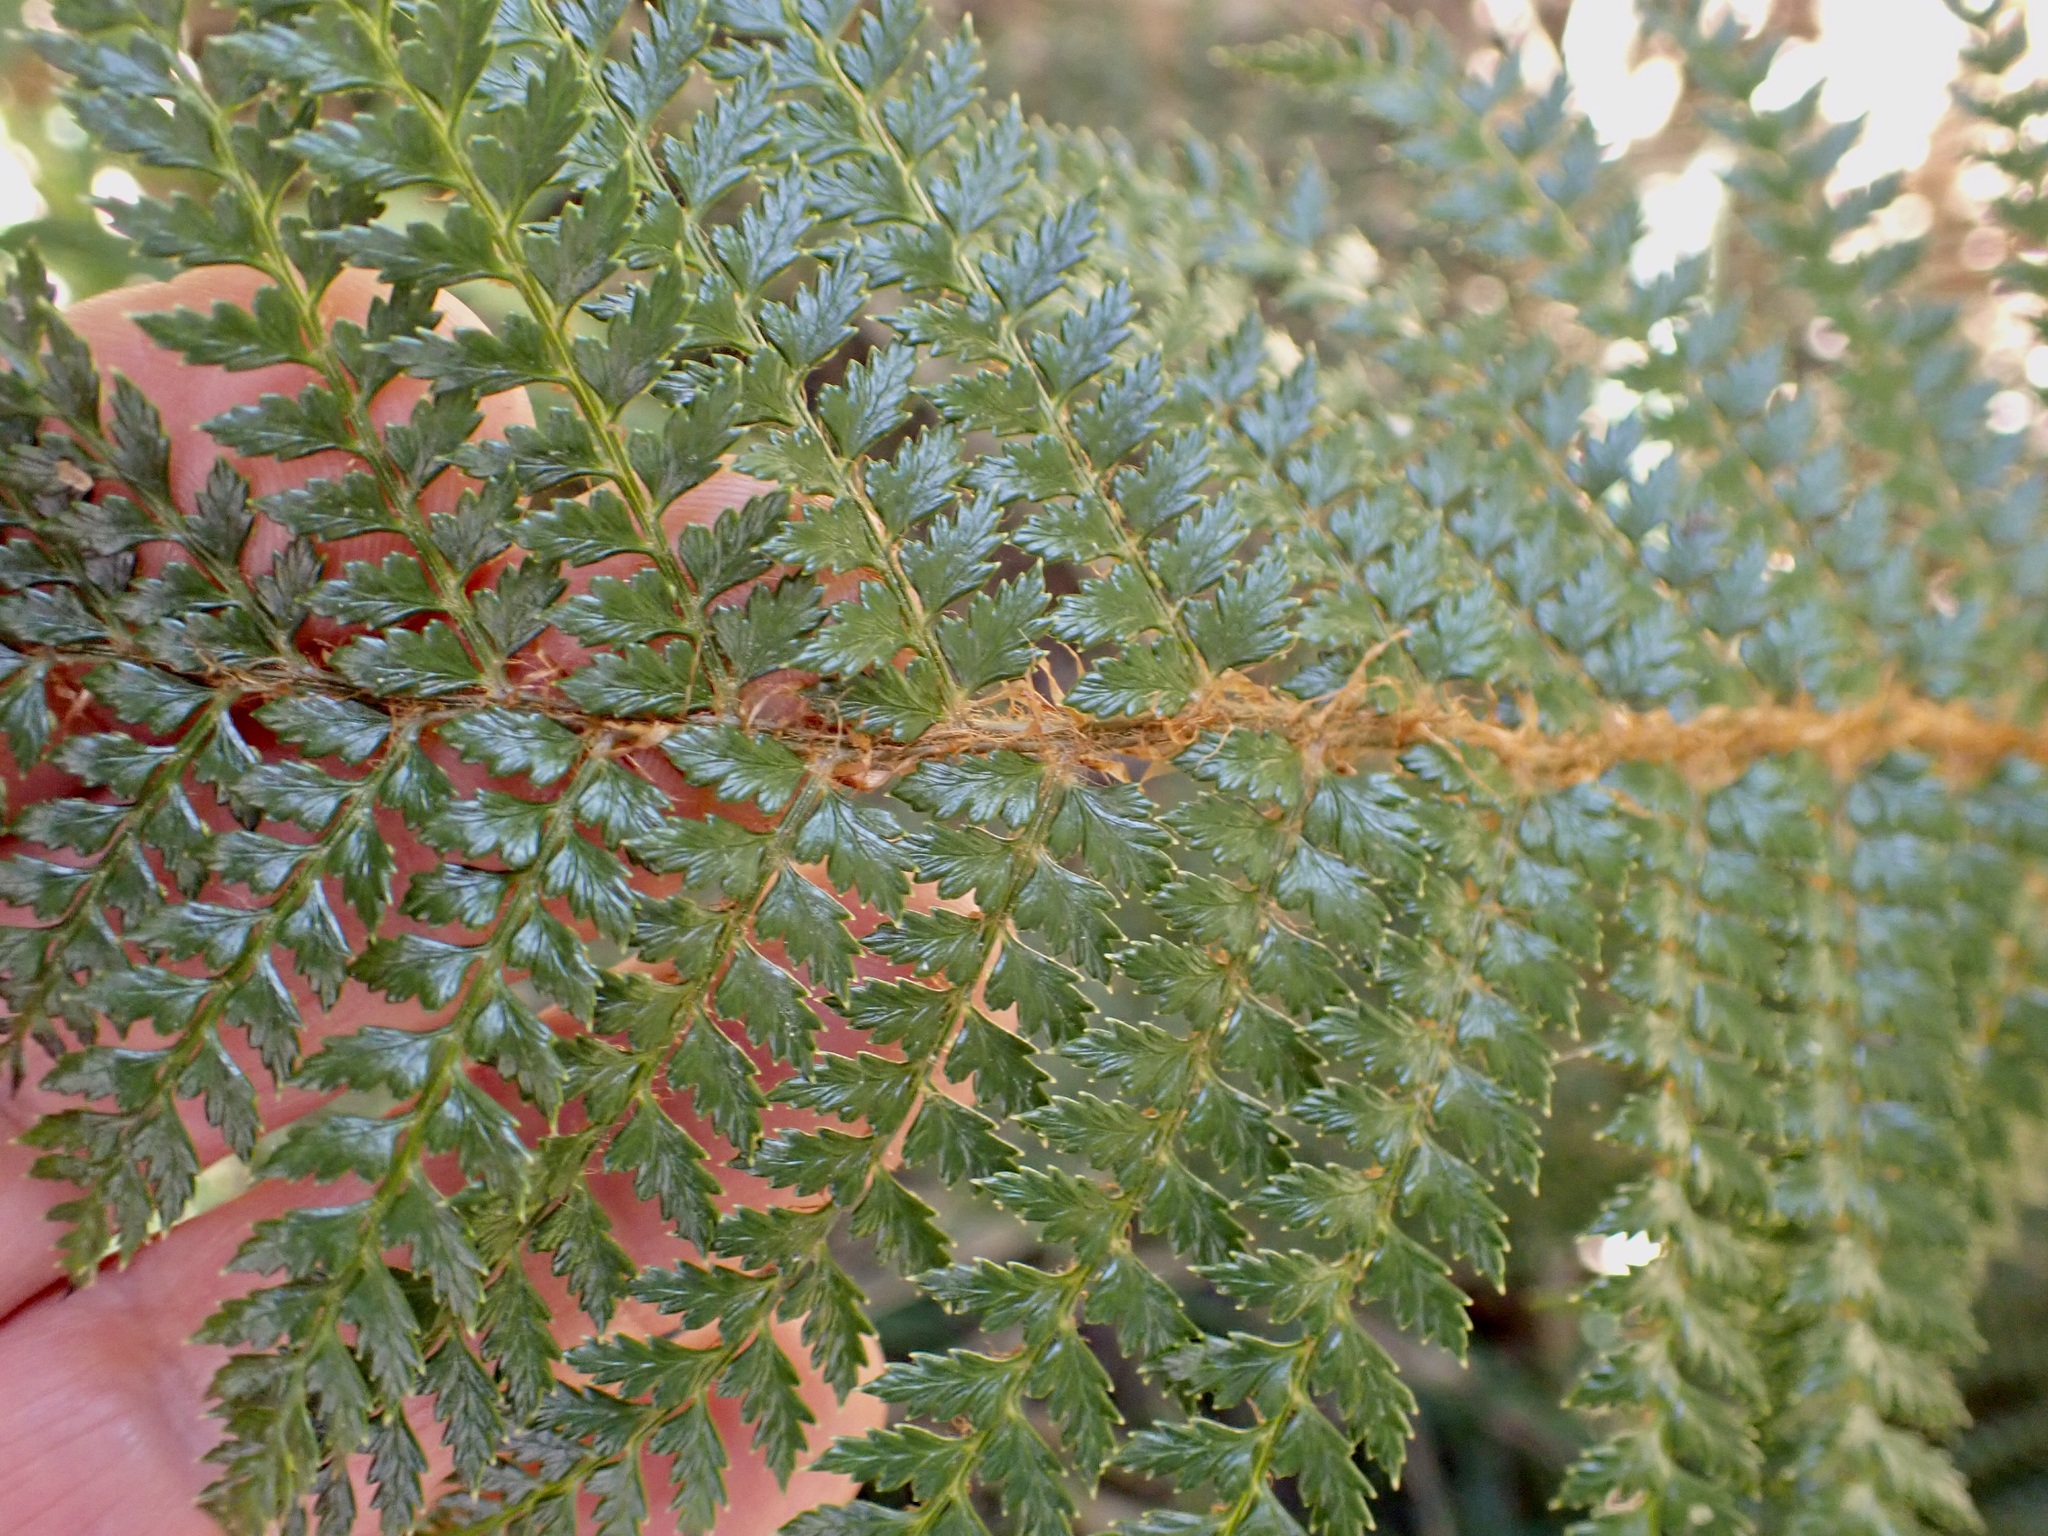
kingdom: Plantae
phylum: Tracheophyta
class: Polypodiopsida
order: Polypodiales
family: Dryopteridaceae
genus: Polystichum
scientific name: Polystichum vestitum
